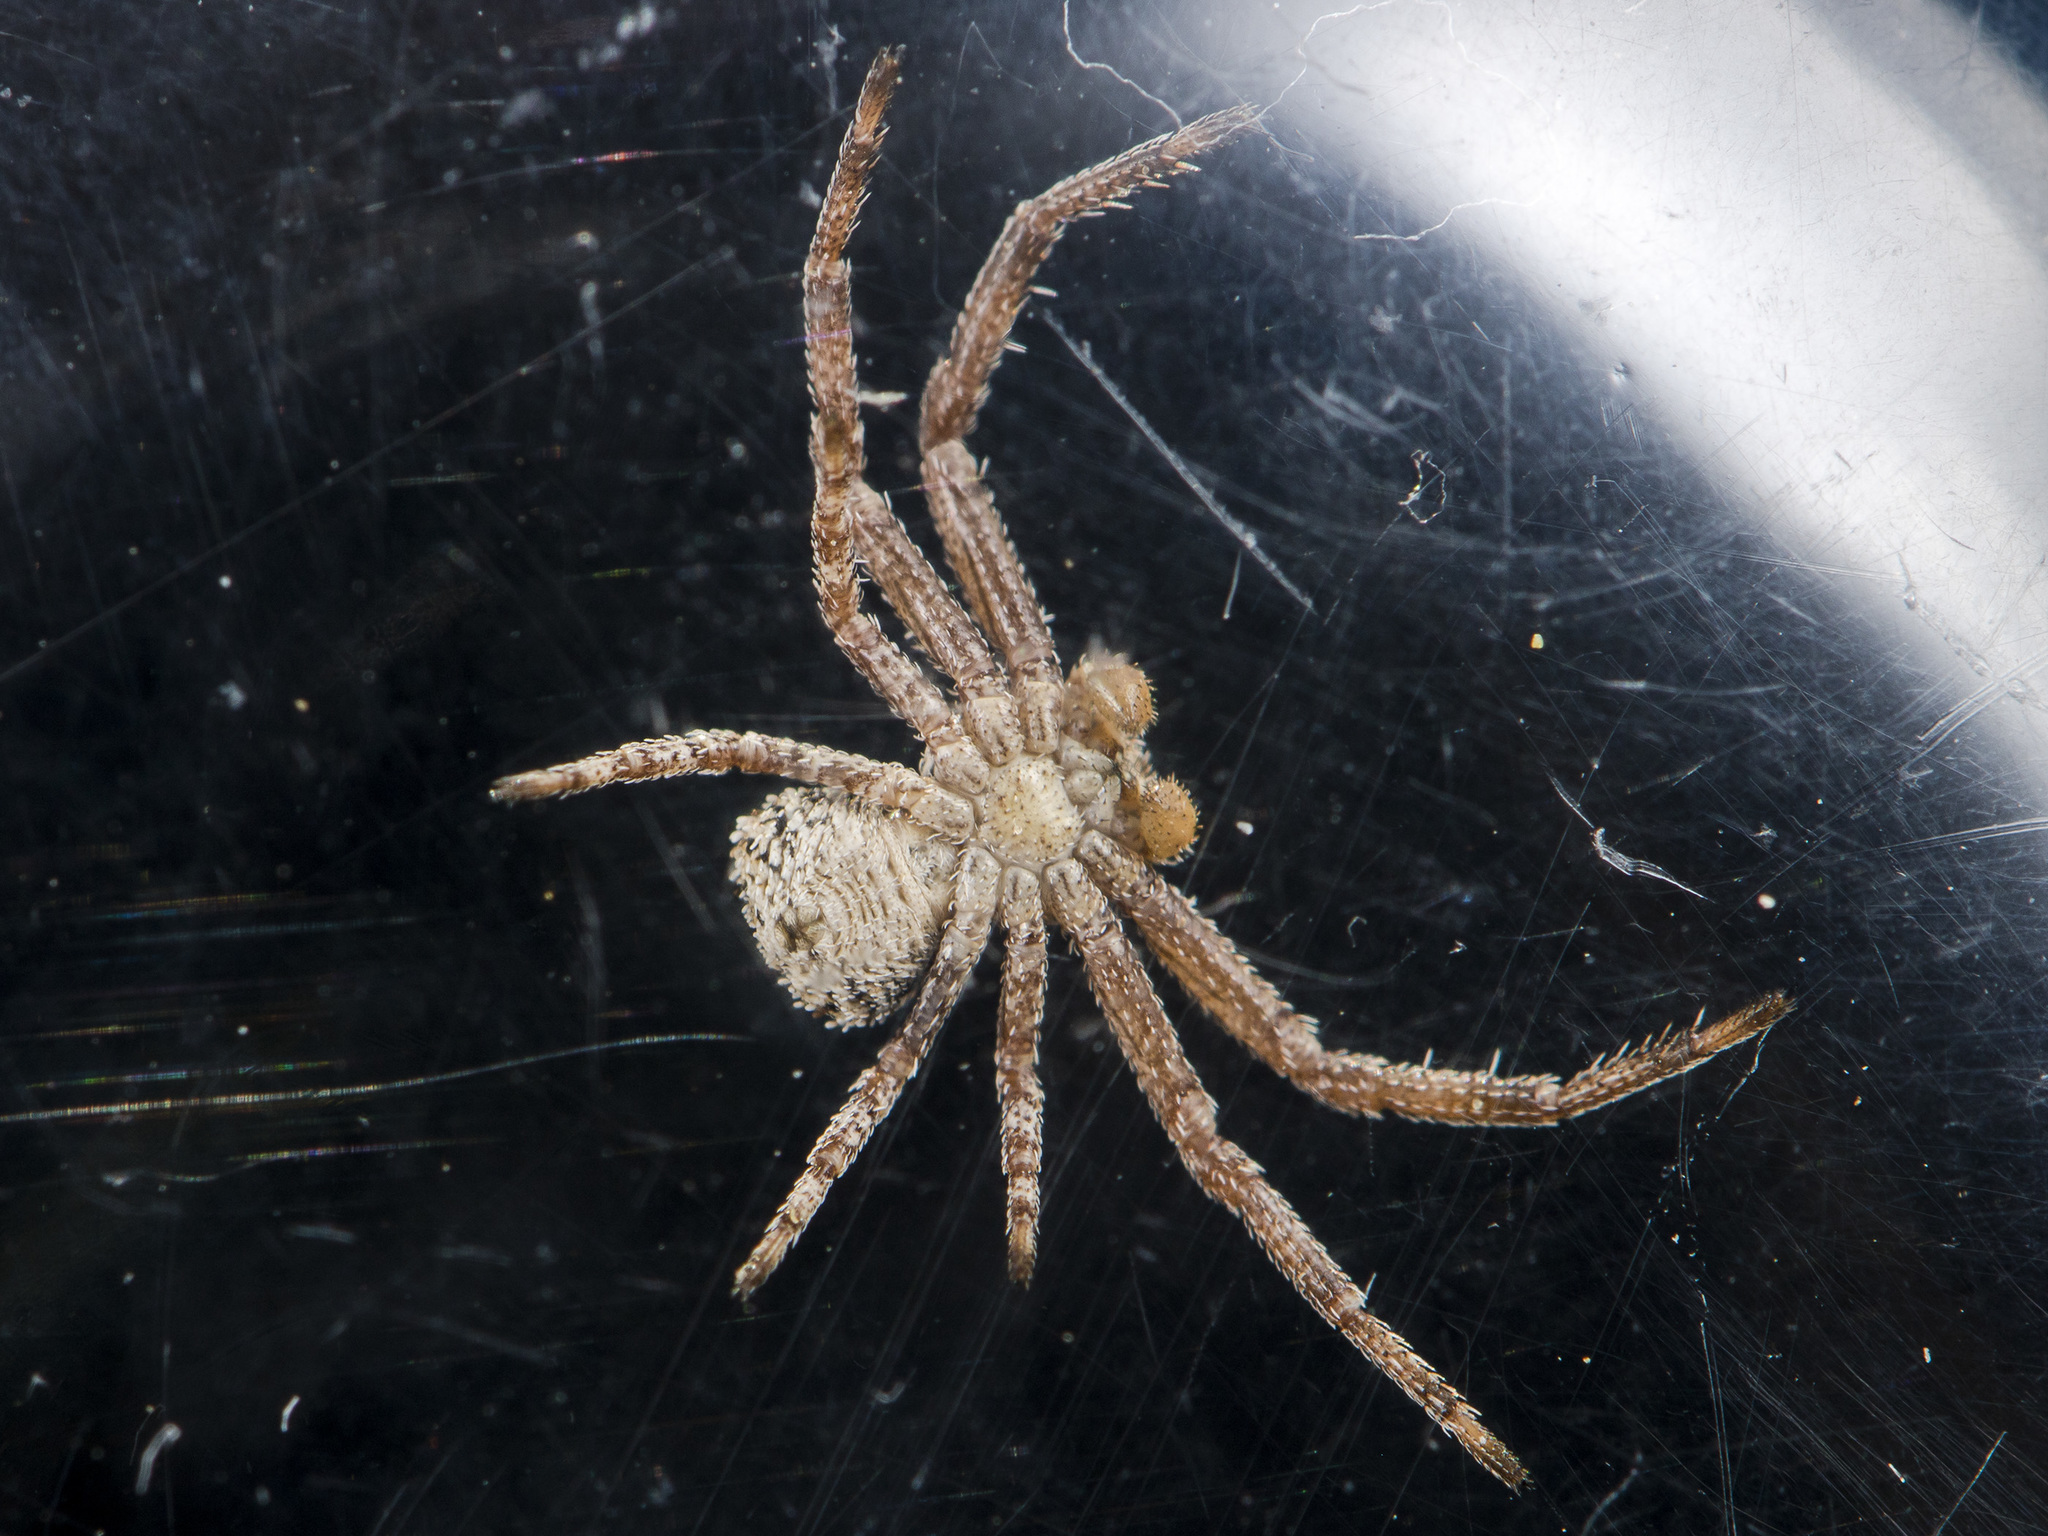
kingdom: Animalia
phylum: Arthropoda
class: Arachnida
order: Araneae
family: Thomisidae
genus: Ozyptila
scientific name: Ozyptila lugubris
